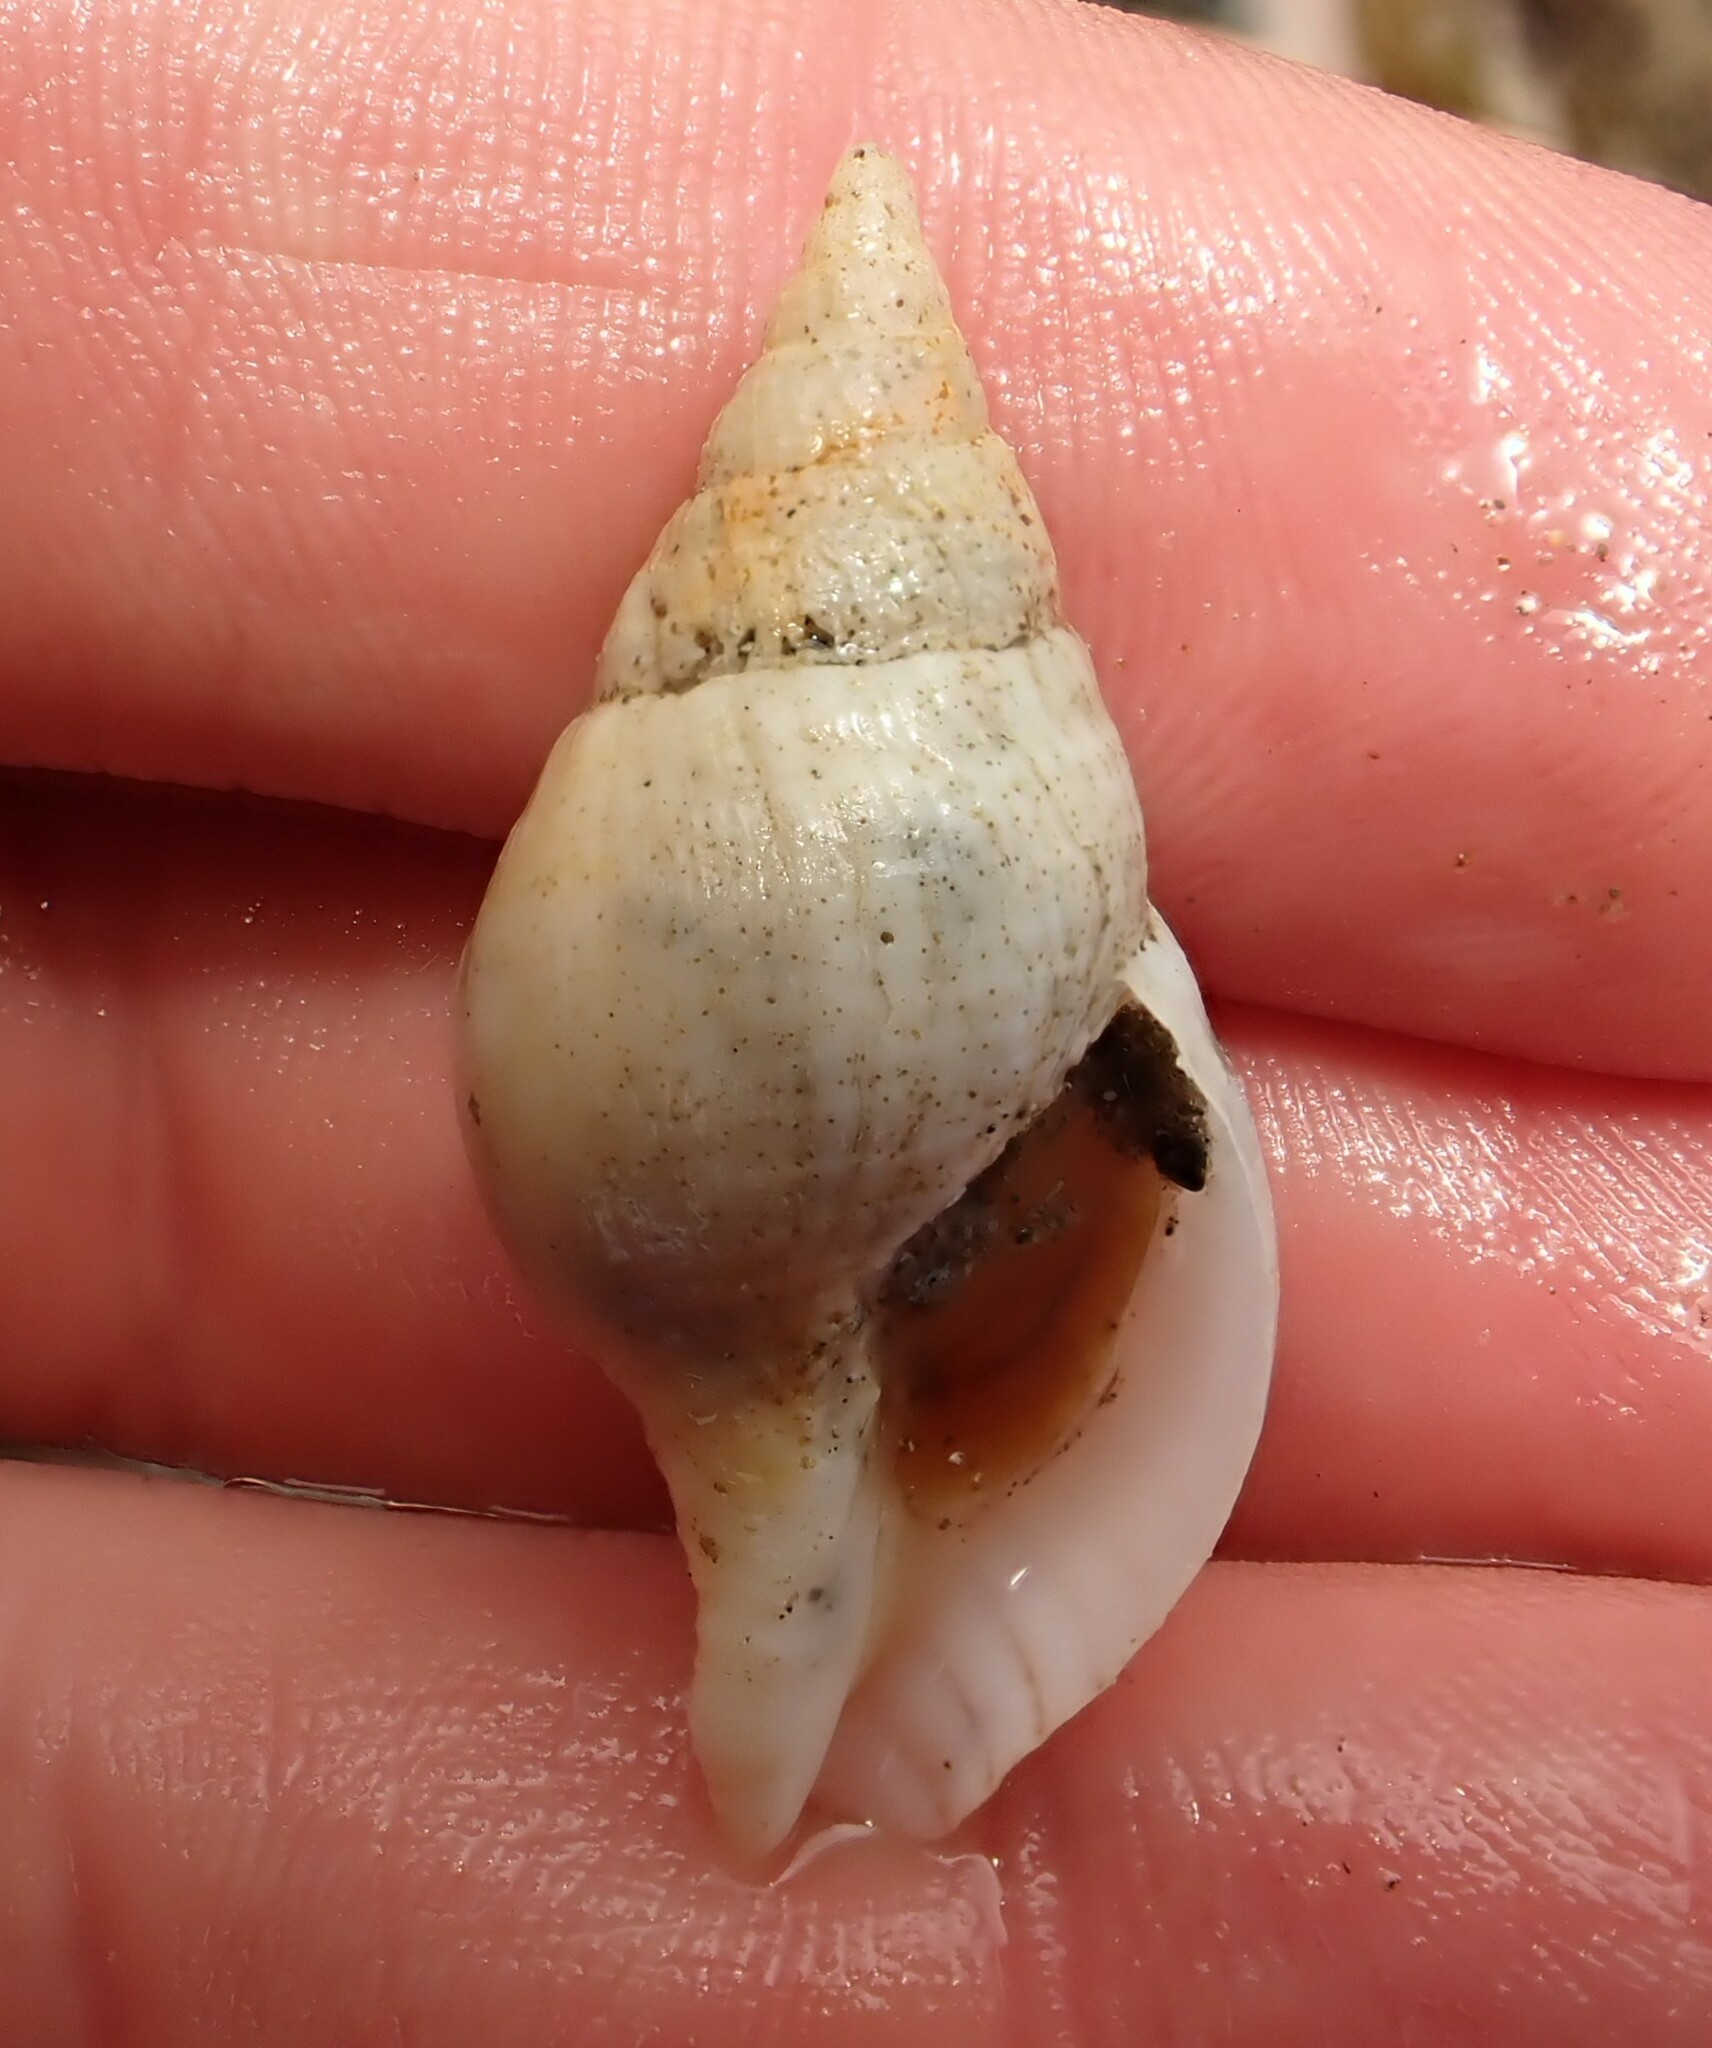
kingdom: Animalia
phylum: Mollusca
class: Gastropoda
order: Neogastropoda
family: Tudiclidae
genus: Buccinulum
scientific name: Buccinulum pertinax
